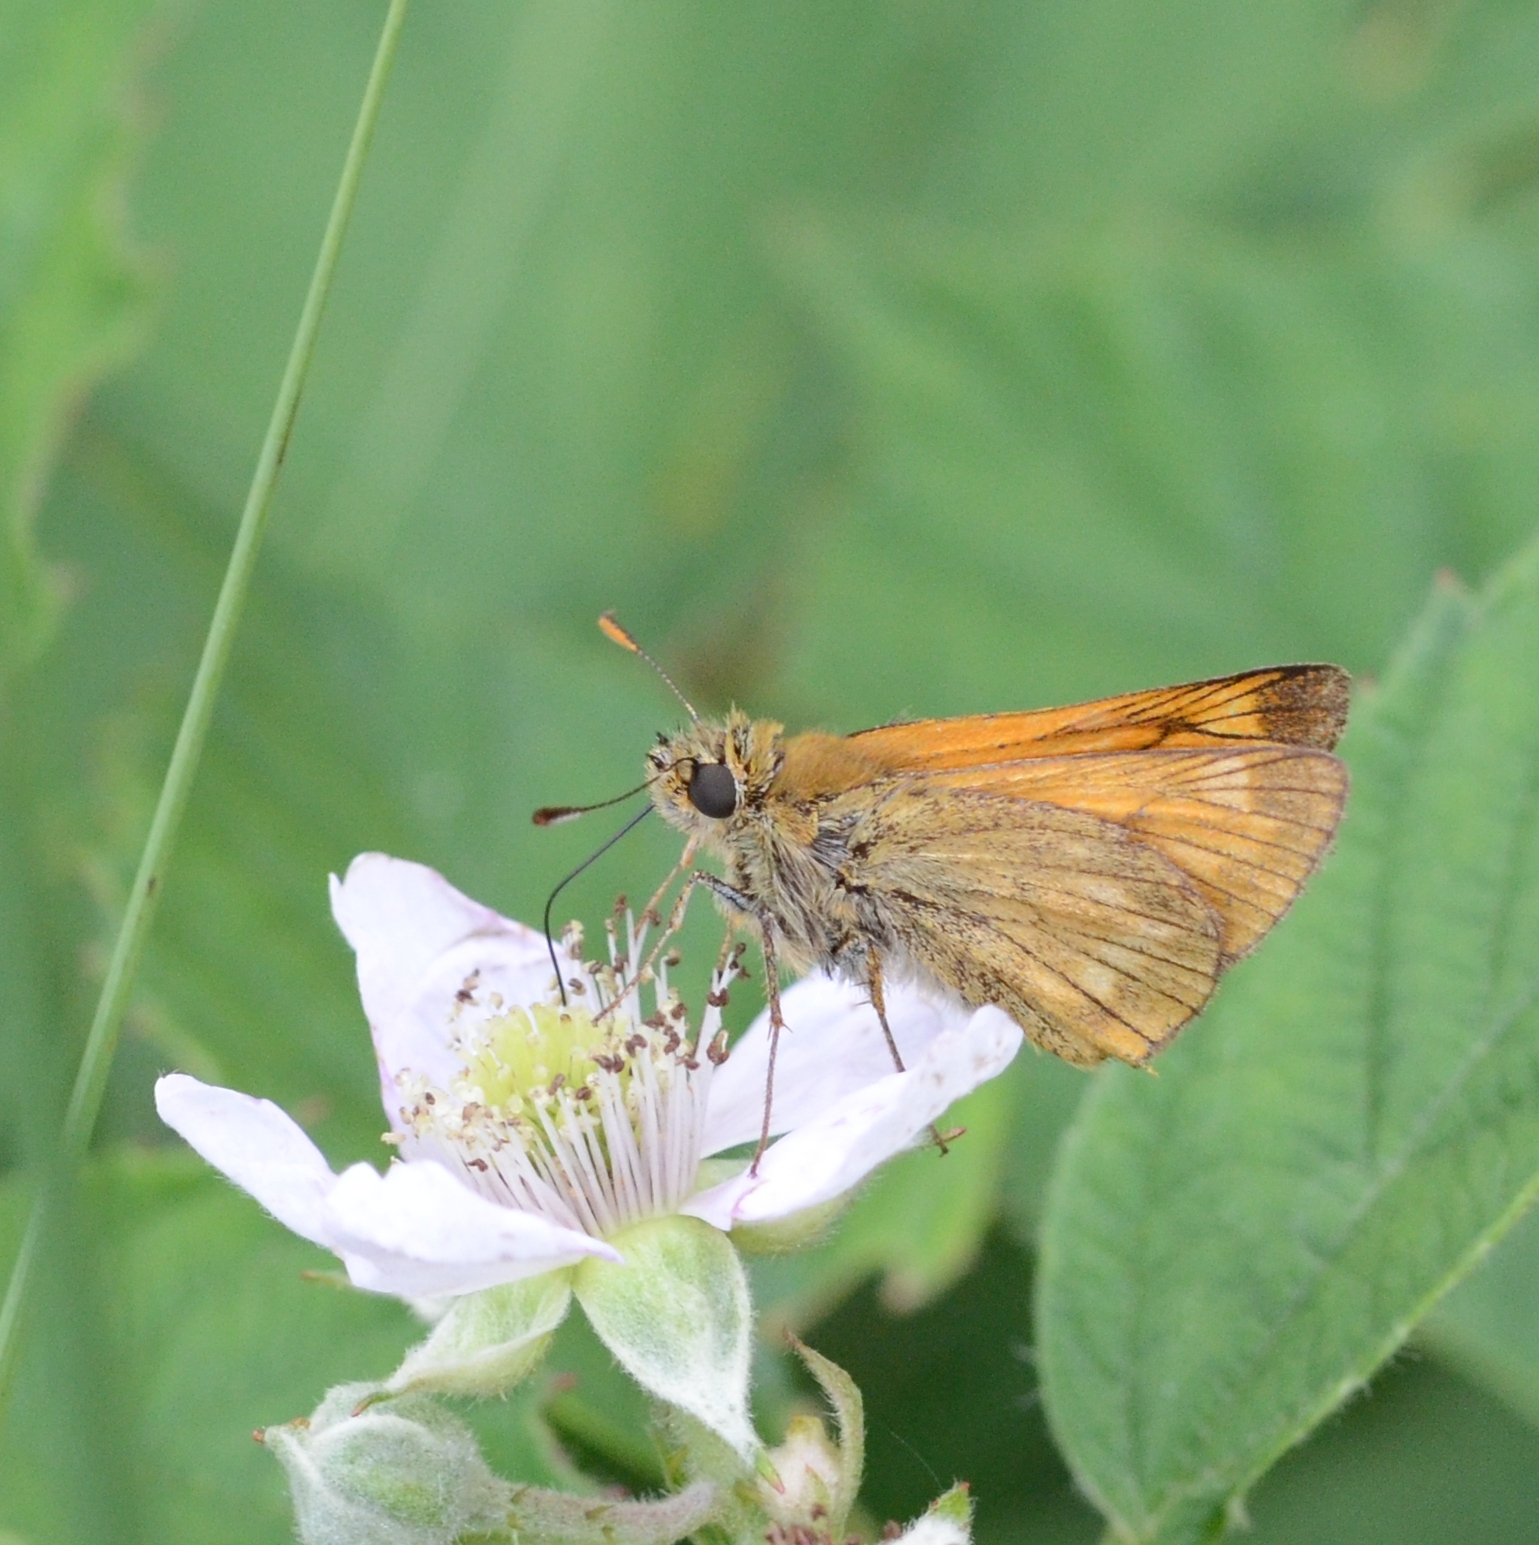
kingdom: Animalia
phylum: Arthropoda
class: Insecta
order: Lepidoptera
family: Hesperiidae
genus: Ochlodes
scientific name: Ochlodes venata
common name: Large skipper
